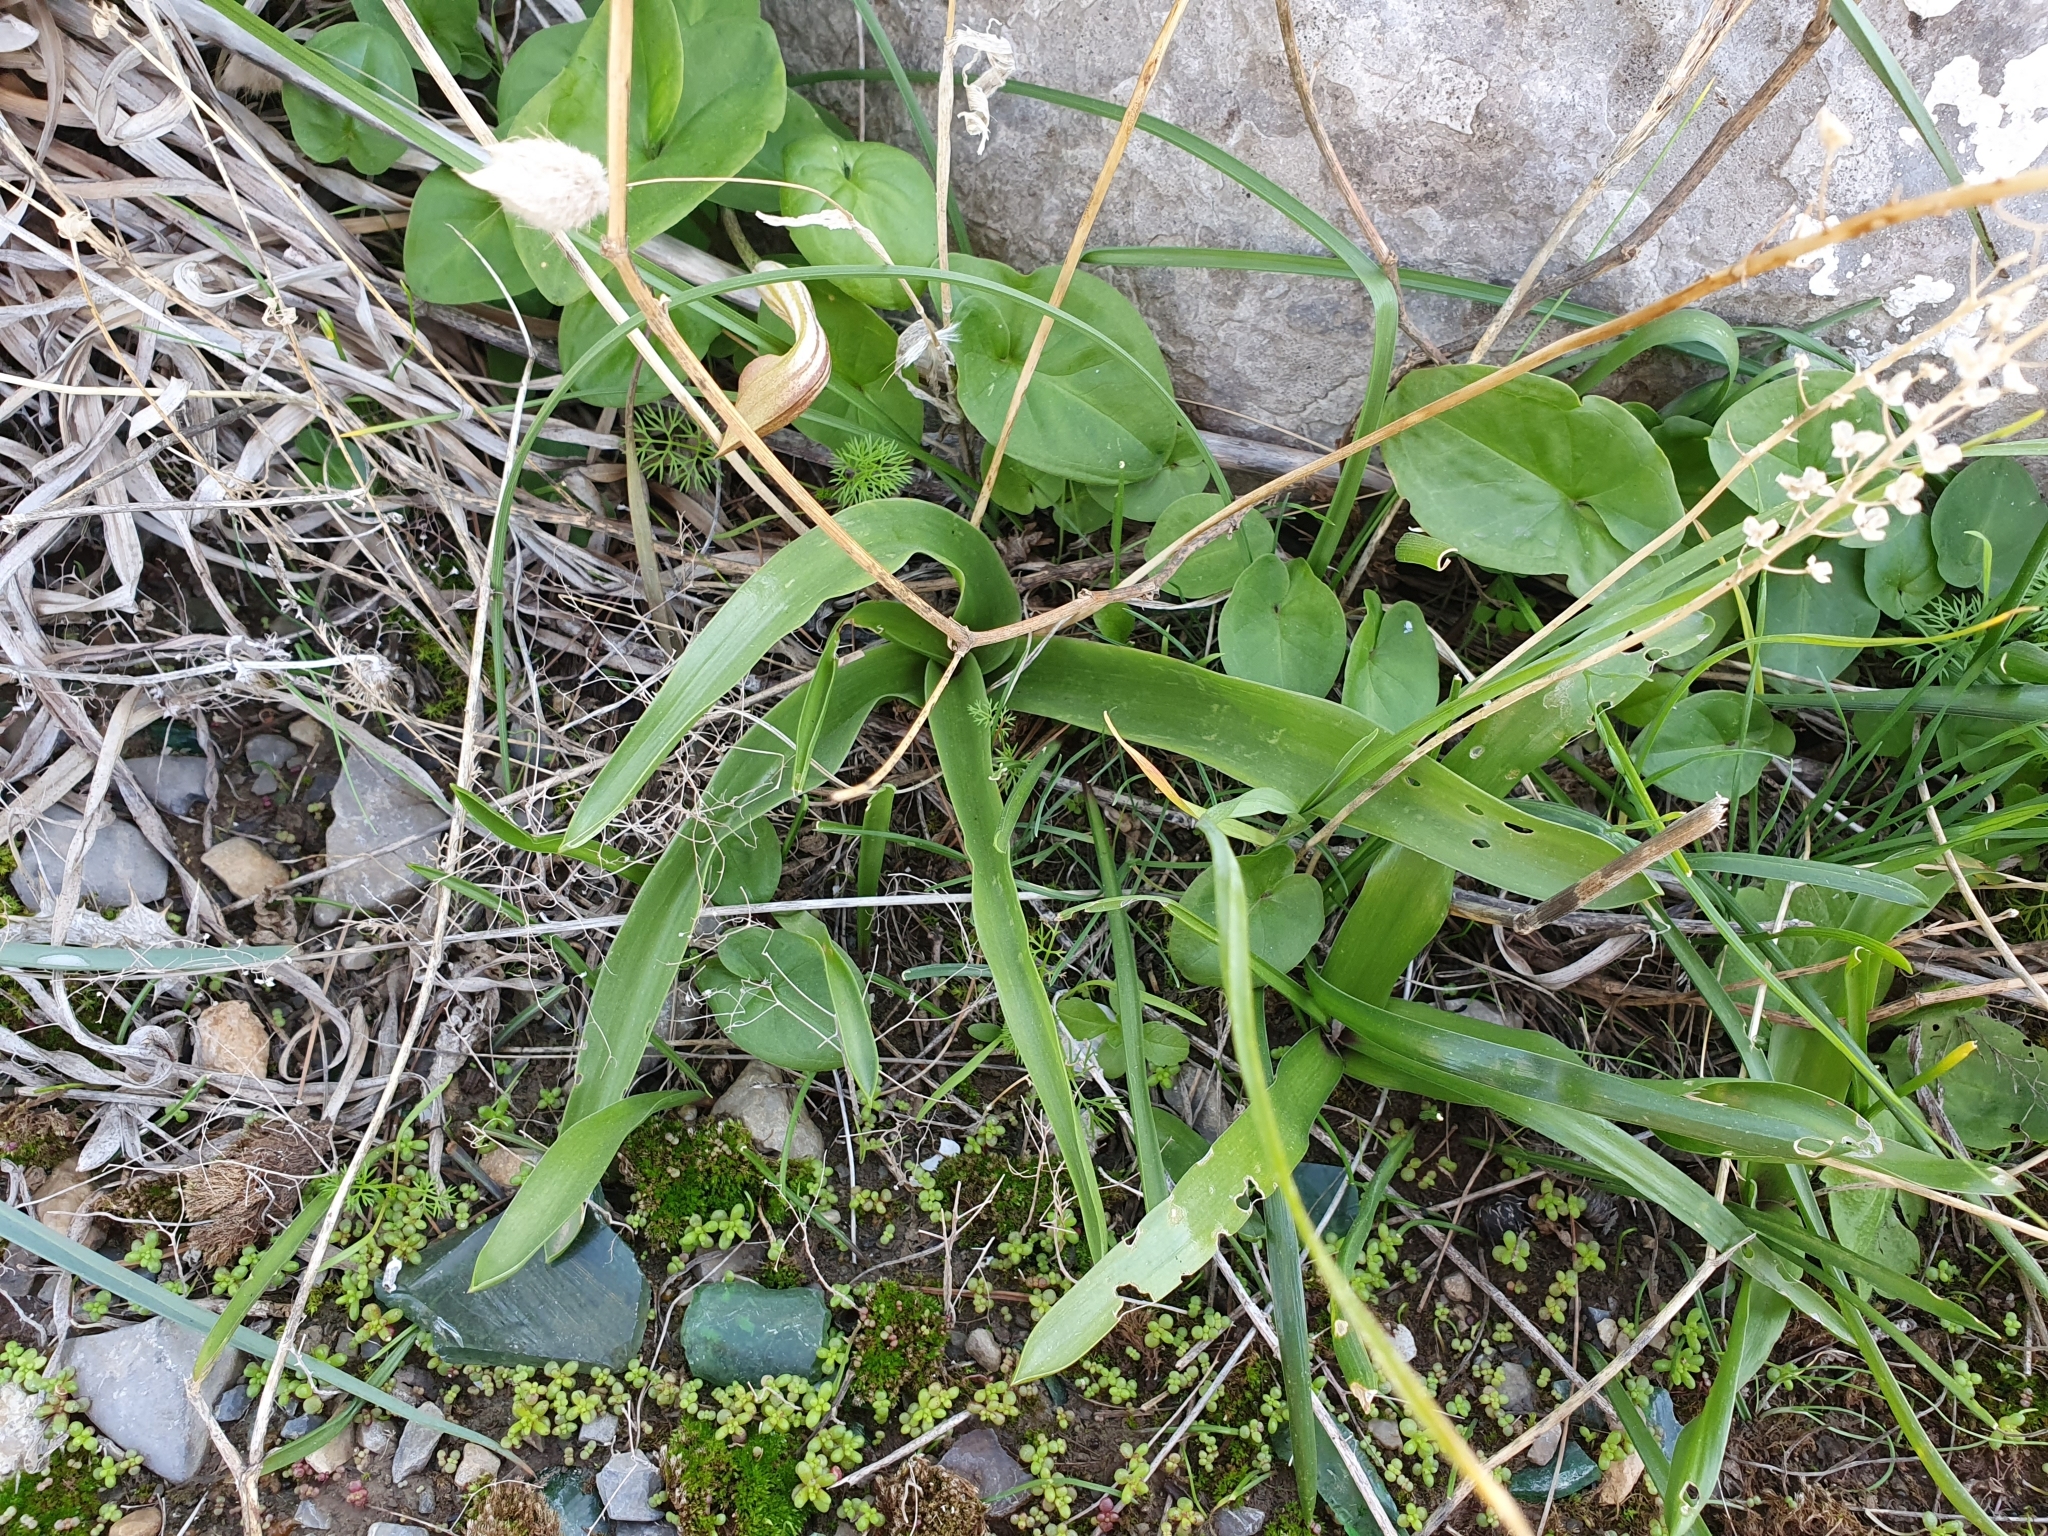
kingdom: Plantae
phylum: Tracheophyta
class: Liliopsida
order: Asparagales
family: Asparagaceae
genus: Prospero
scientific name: Prospero obtusifolium
